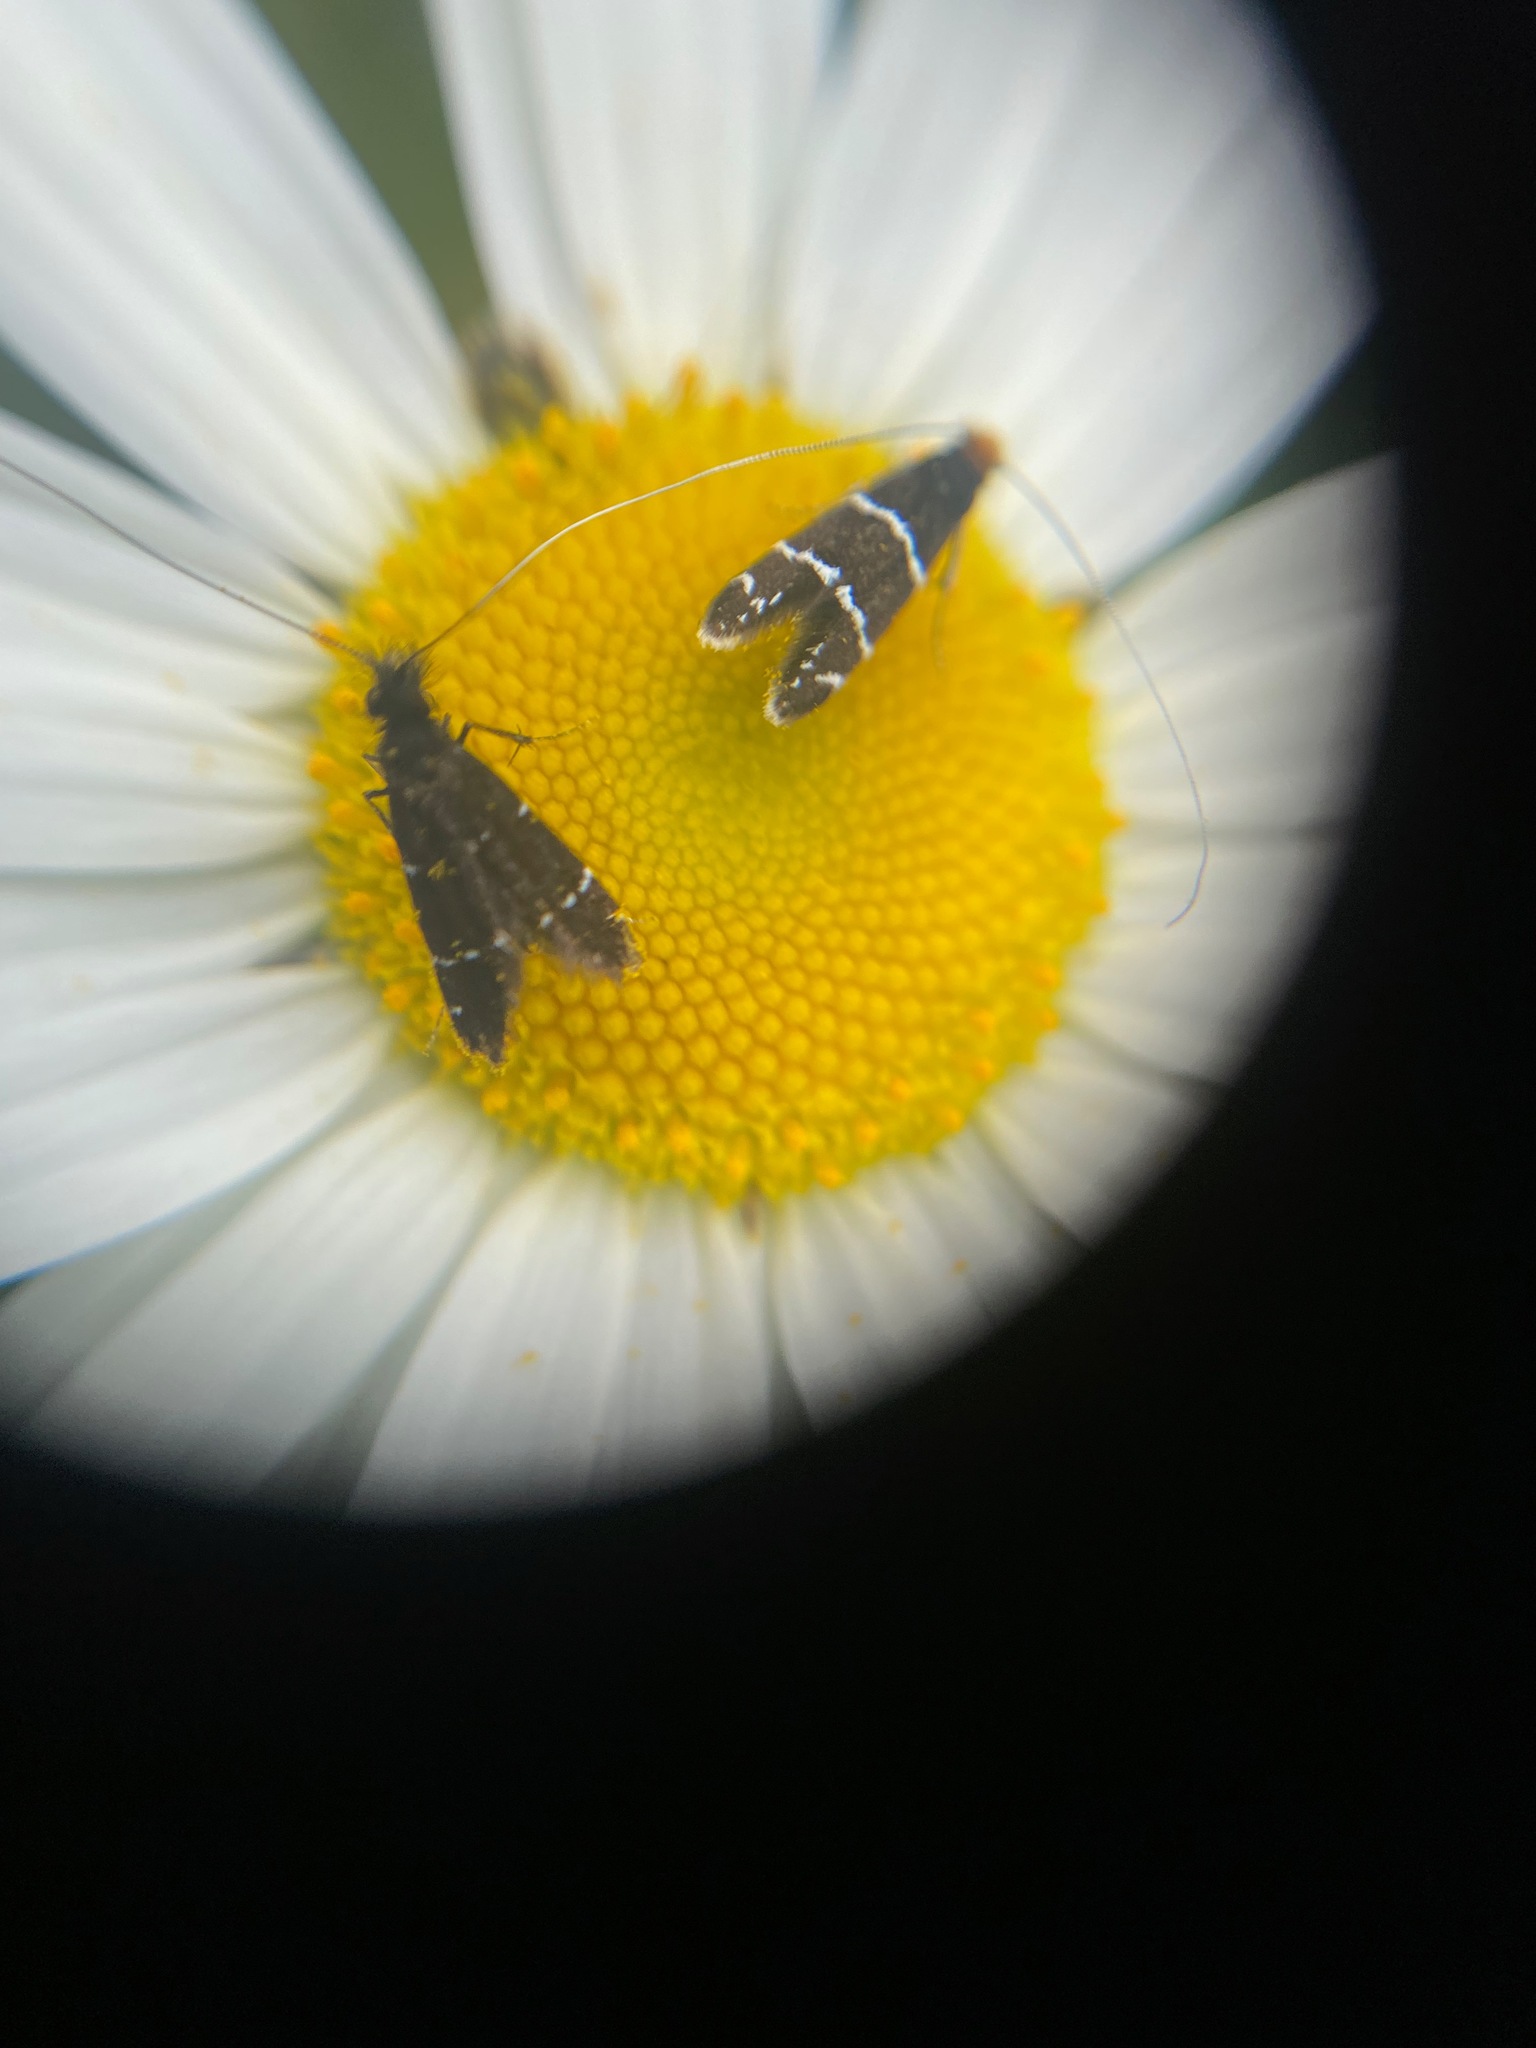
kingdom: Animalia
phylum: Arthropoda
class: Insecta
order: Lepidoptera
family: Adelidae
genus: Adela
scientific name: Adela septentrionella
